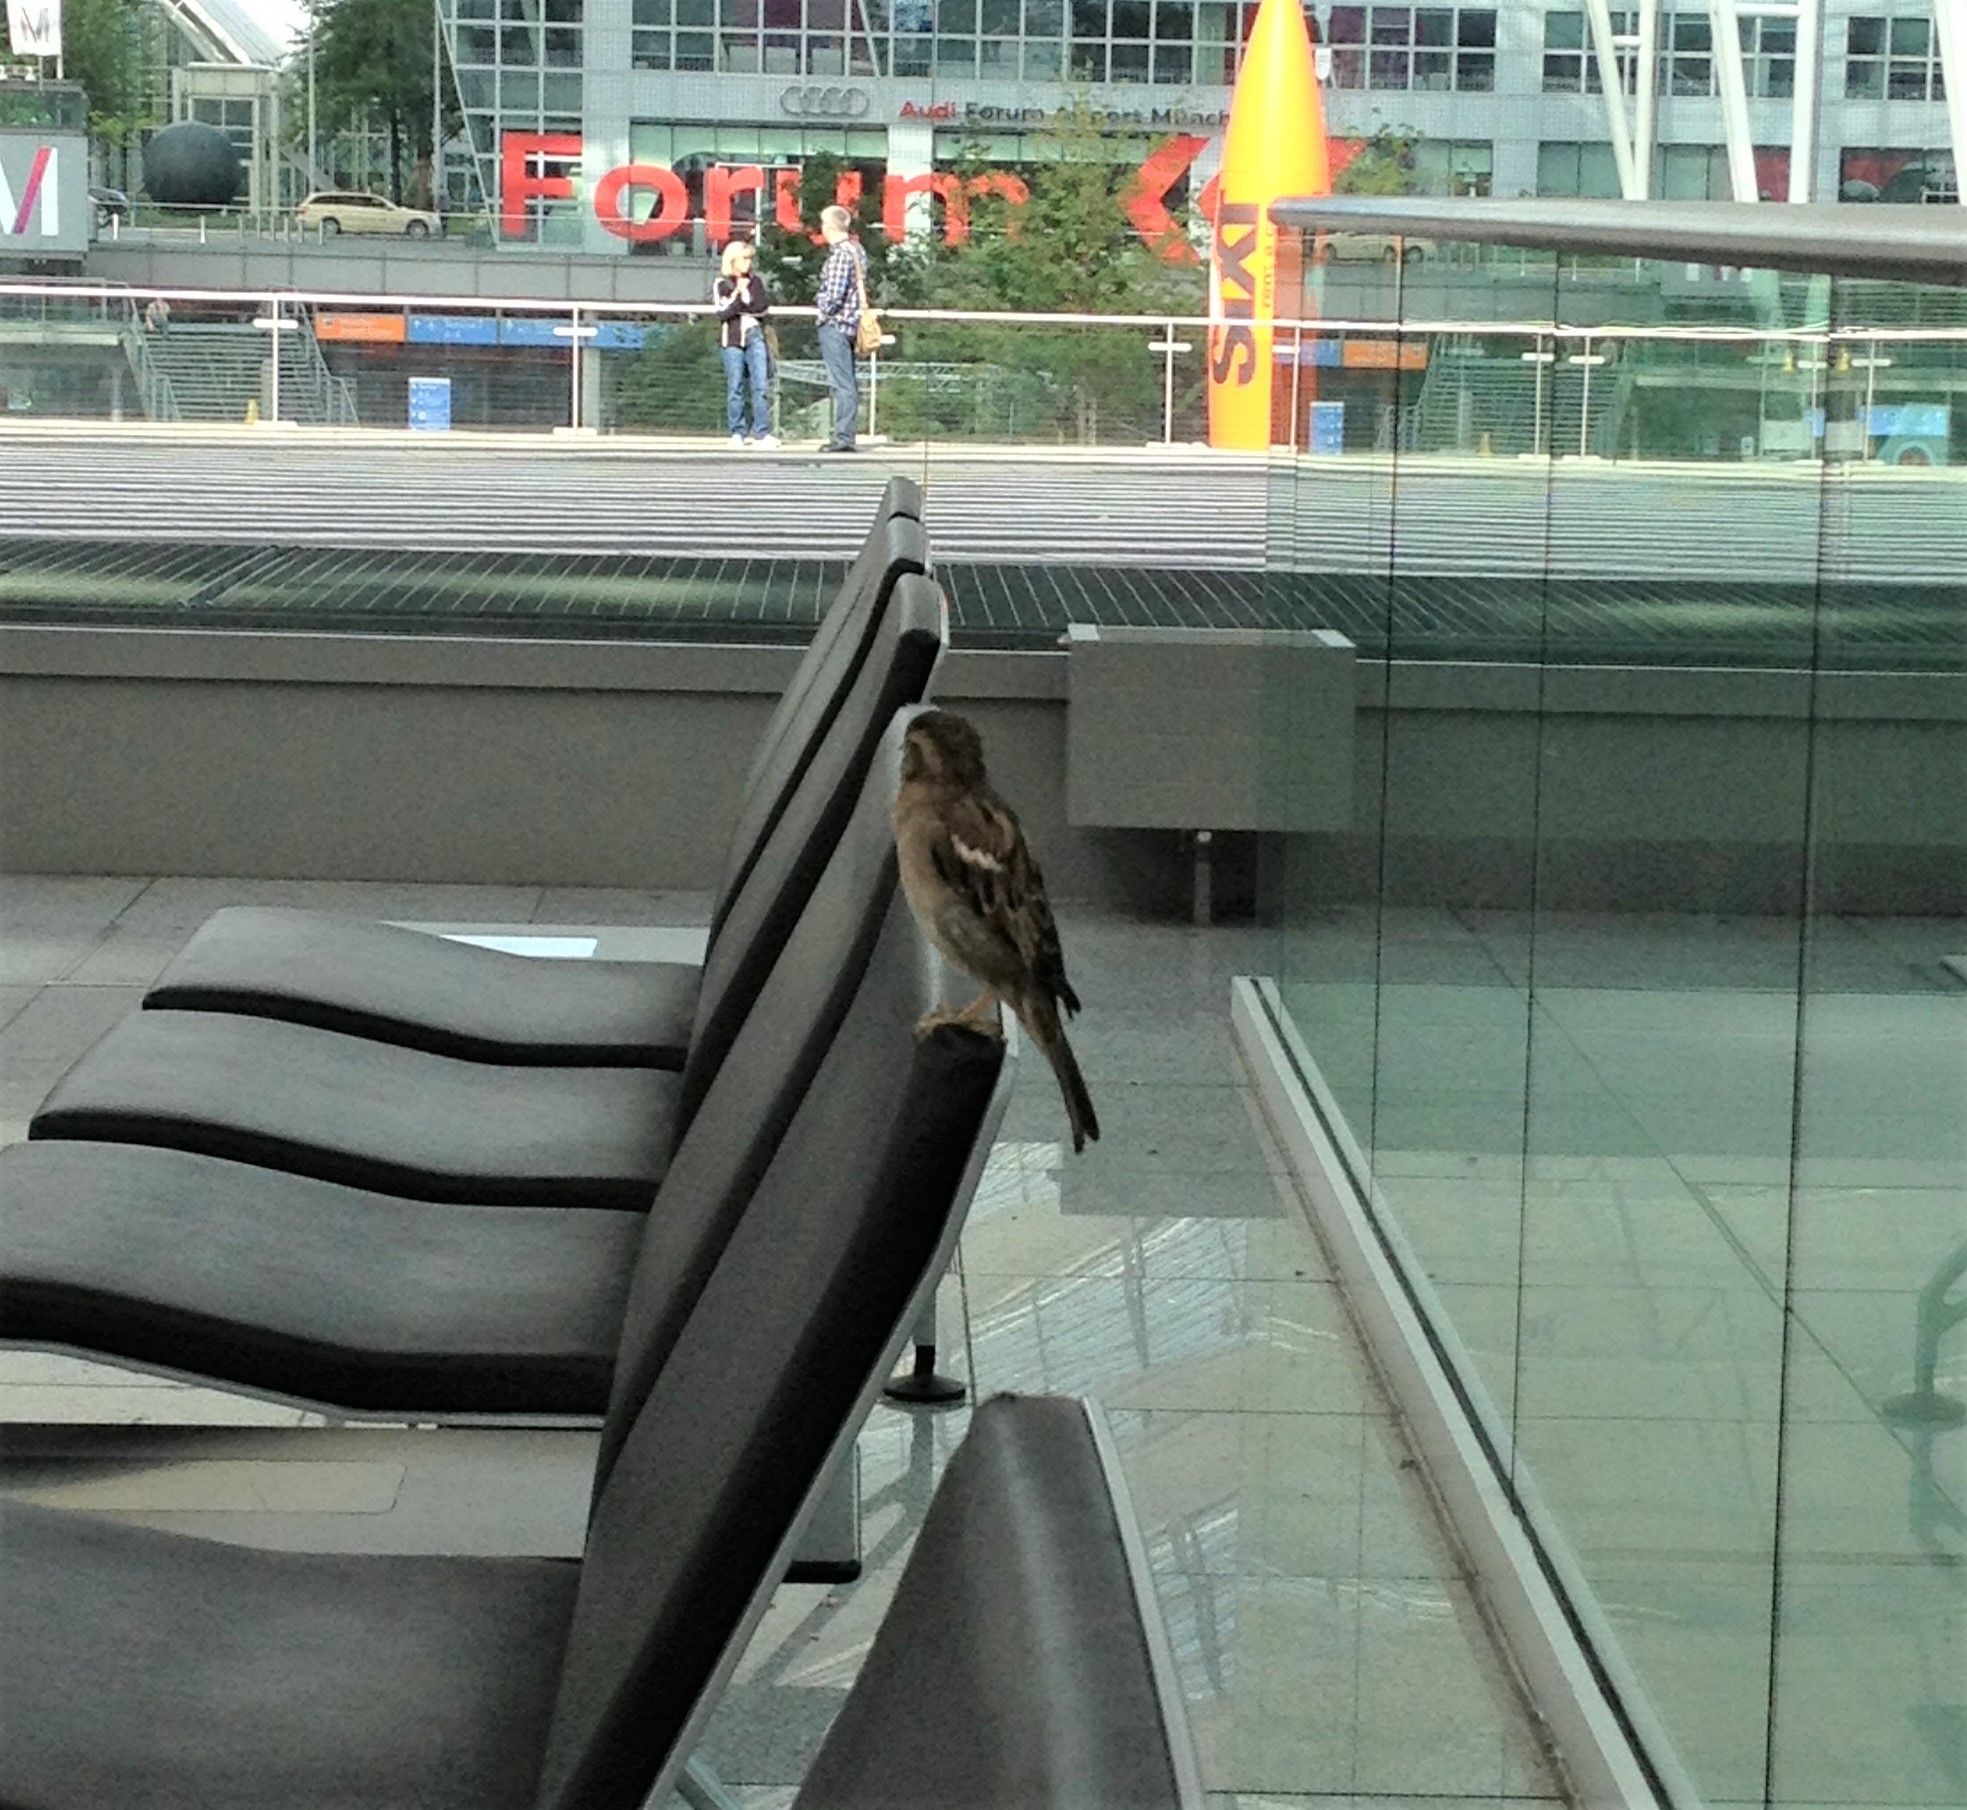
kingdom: Animalia
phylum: Chordata
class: Aves
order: Passeriformes
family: Passeridae
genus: Passer
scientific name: Passer domesticus
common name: House sparrow
